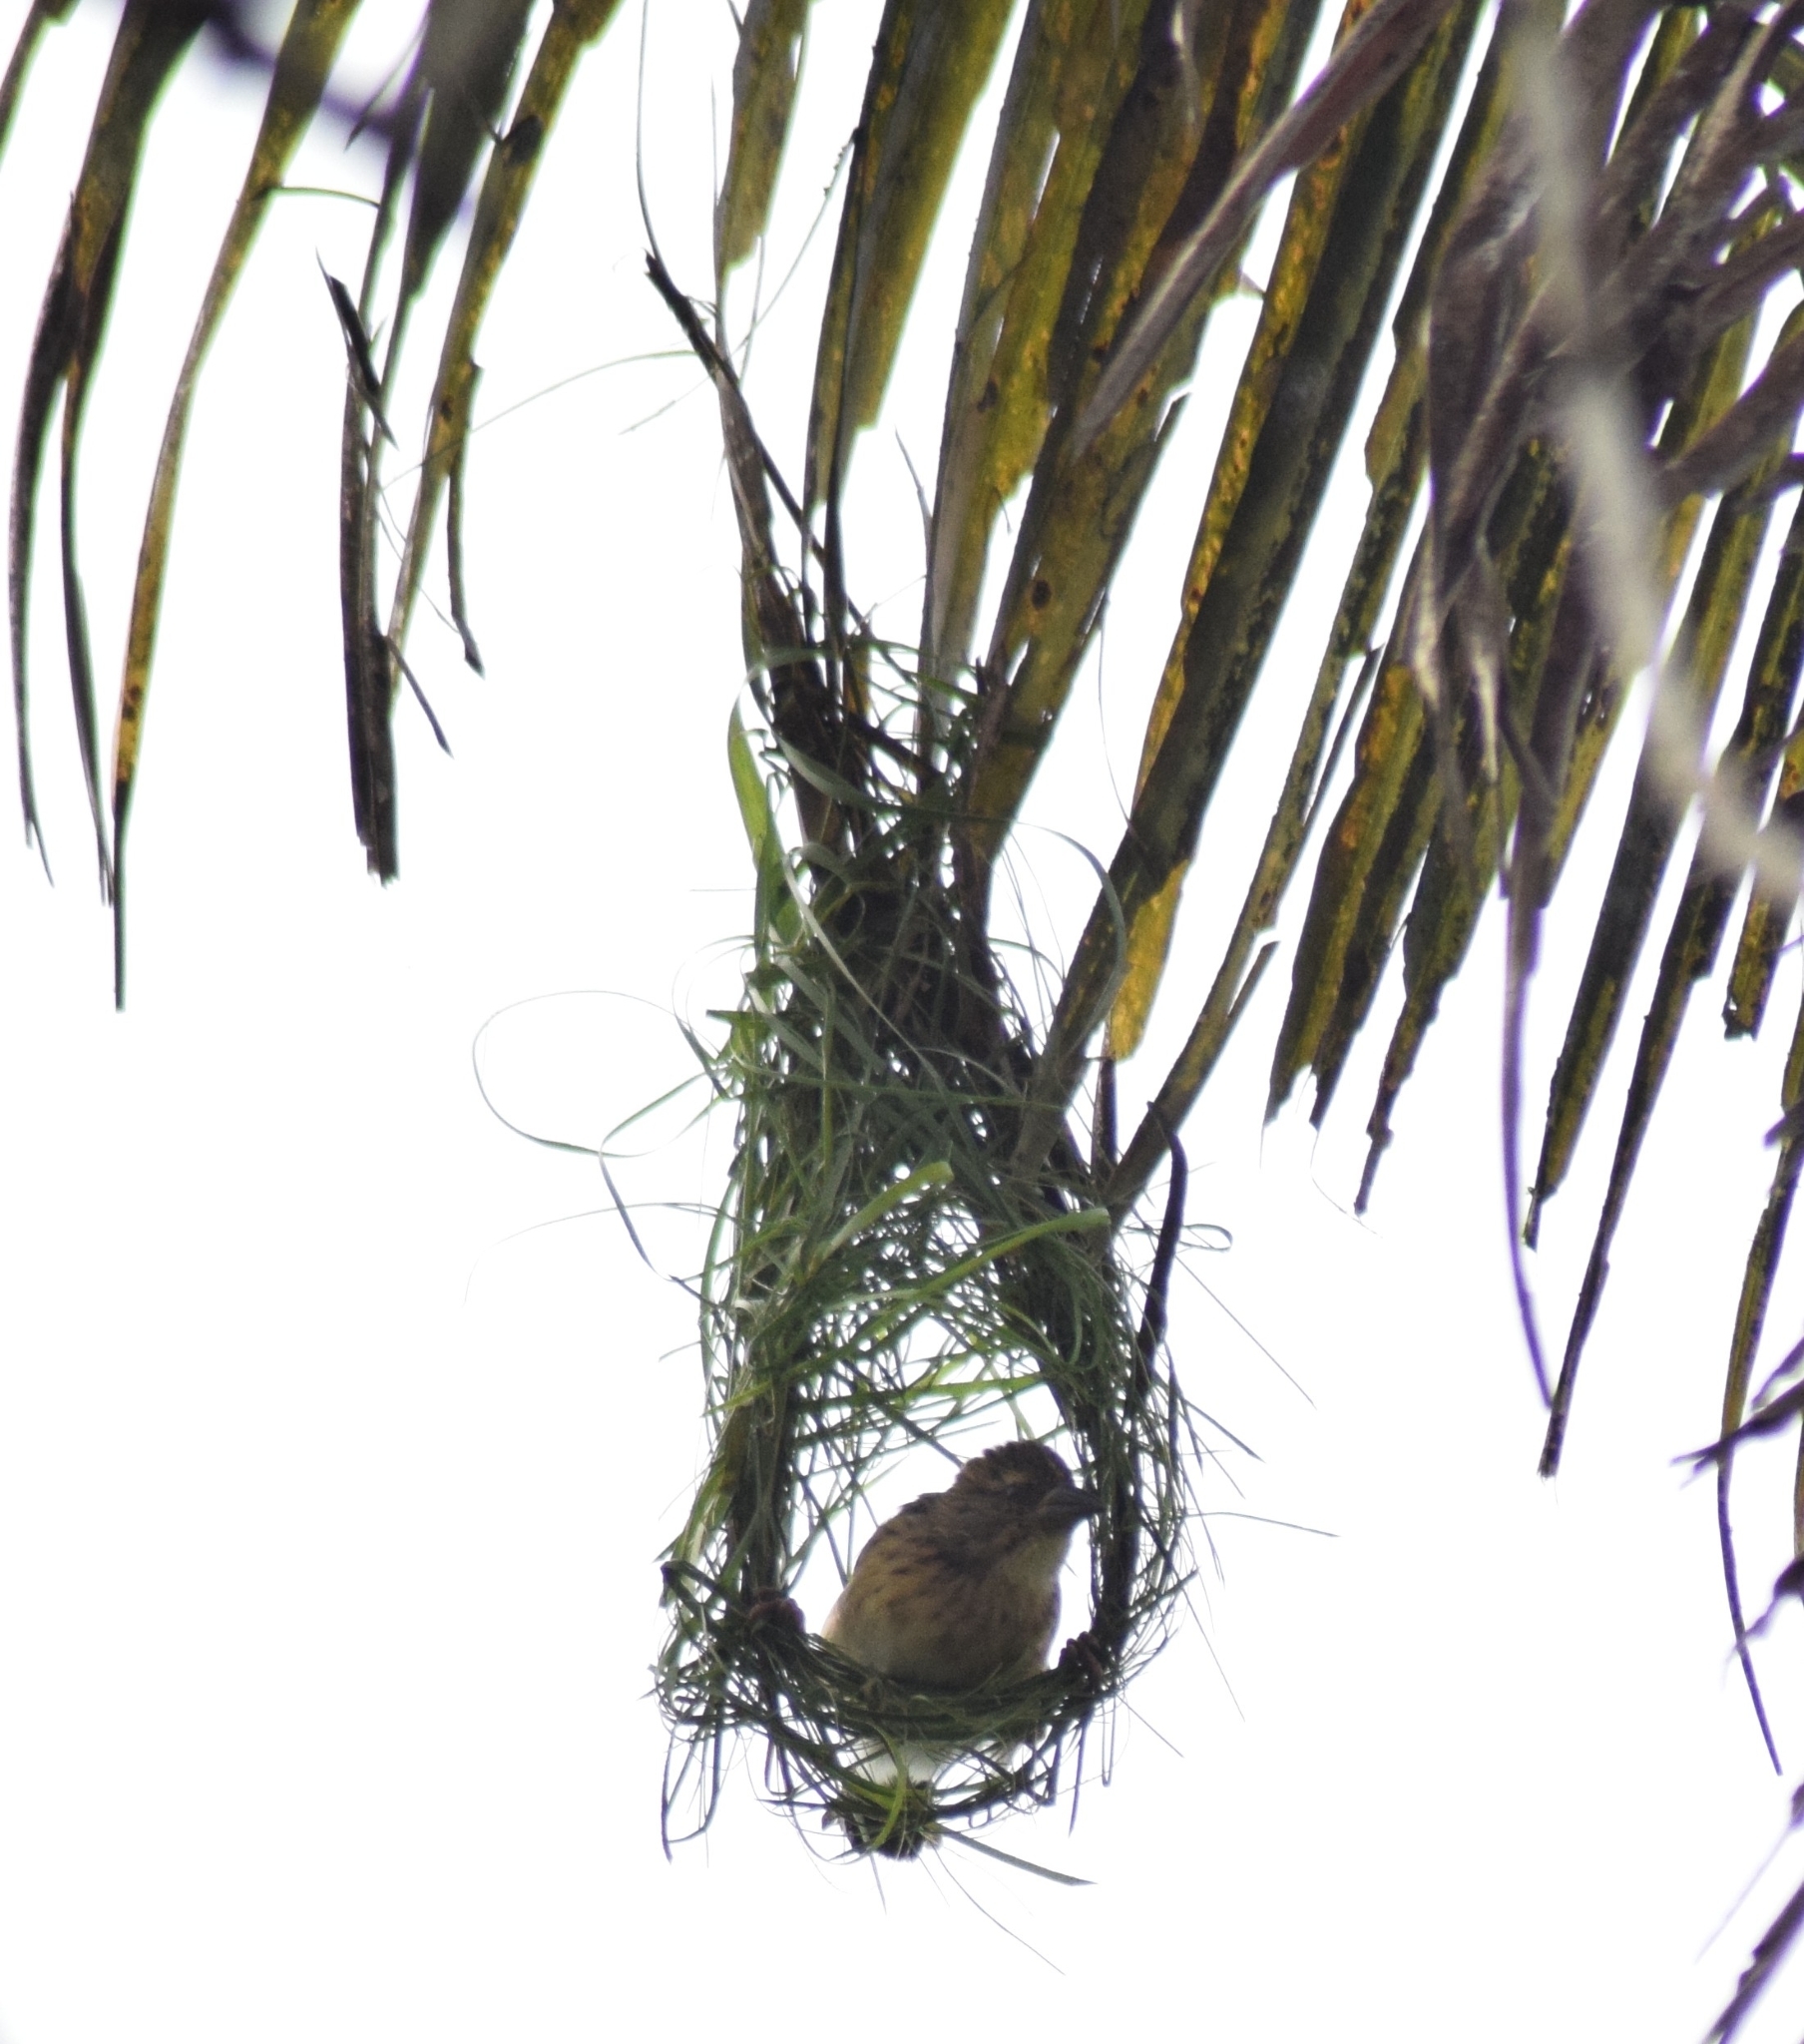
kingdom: Animalia
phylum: Chordata
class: Aves
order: Passeriformes
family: Ploceidae
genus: Ploceus
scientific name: Ploceus philippinus
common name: Baya weaver
